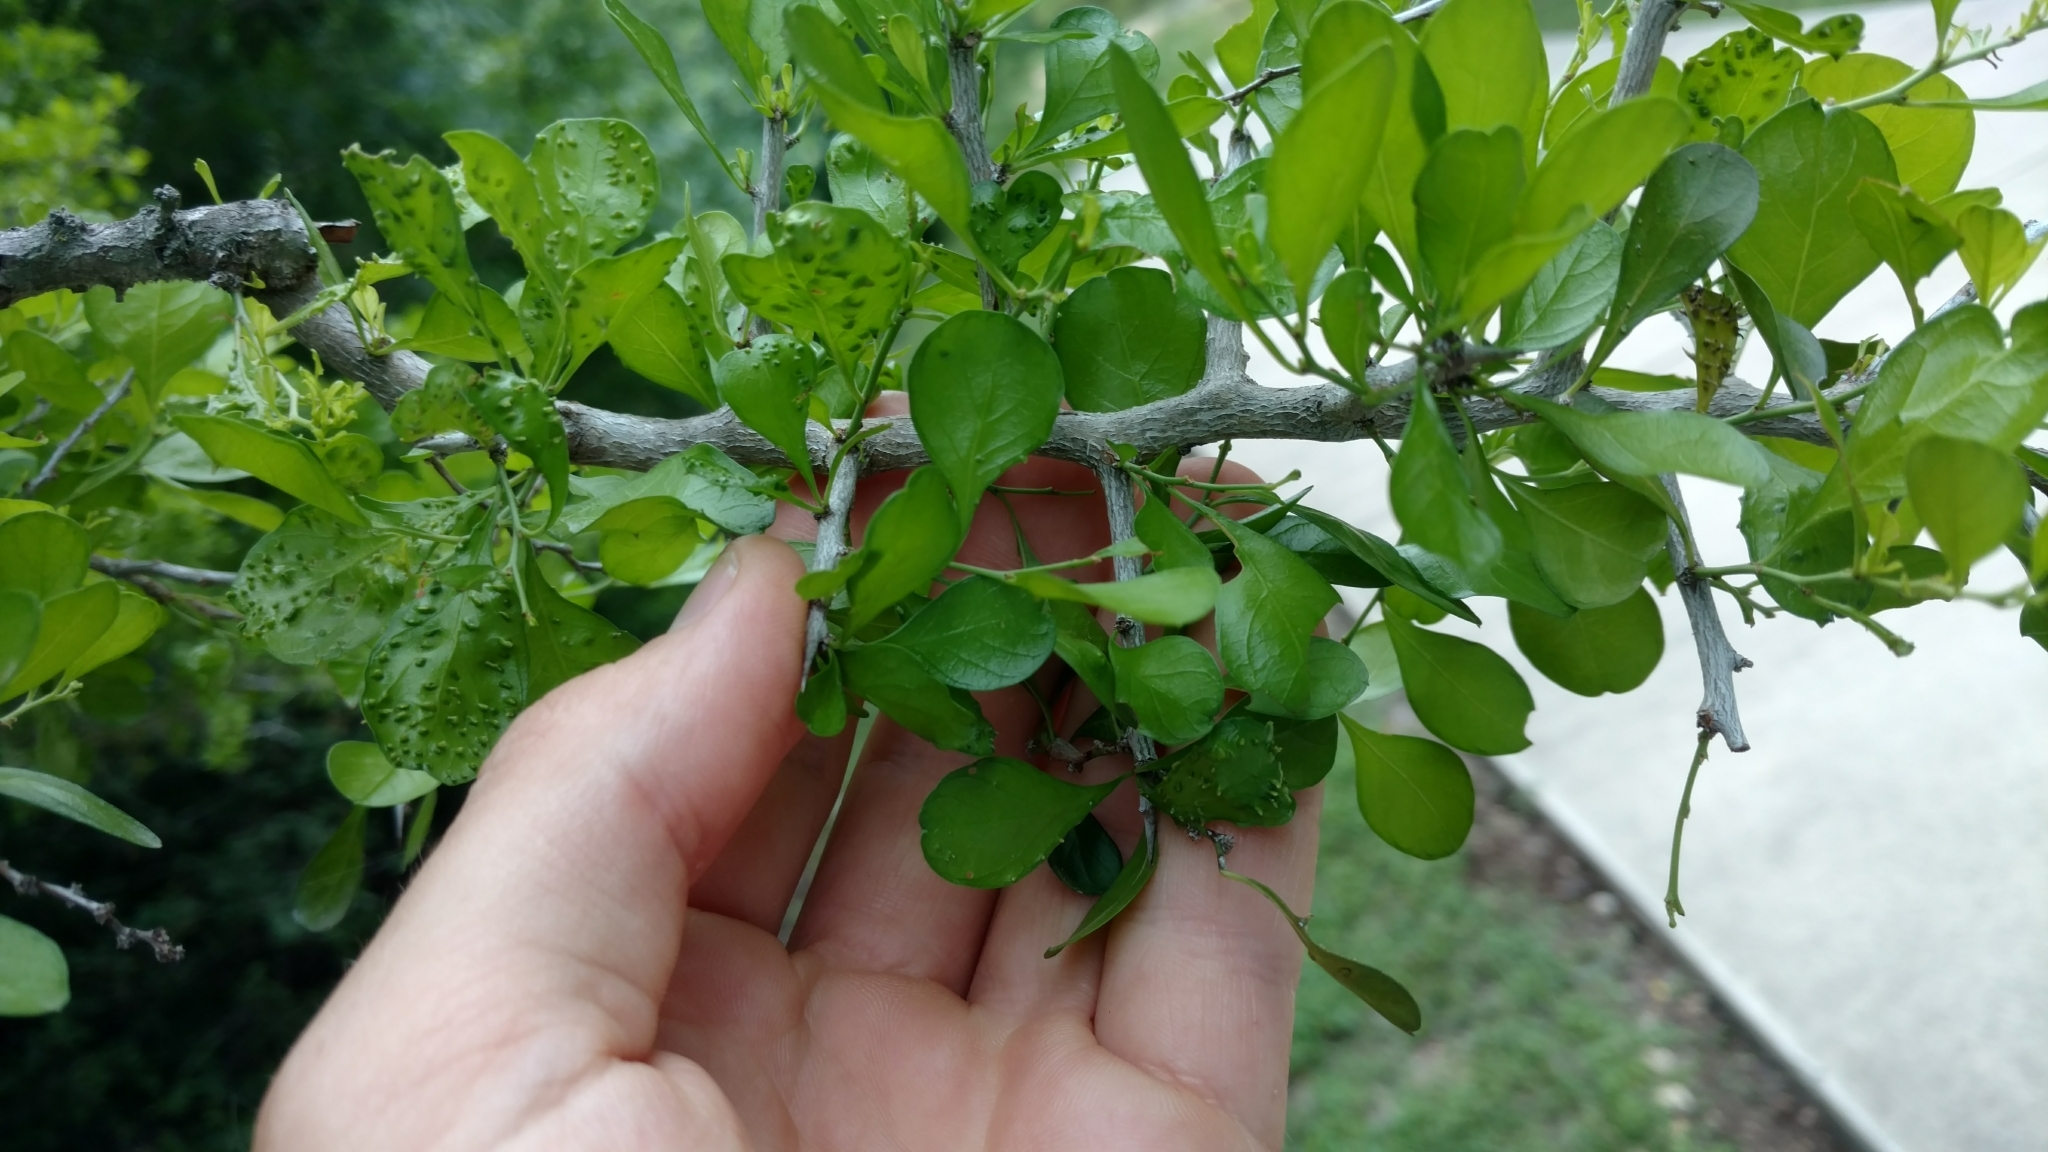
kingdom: Plantae
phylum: Tracheophyta
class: Magnoliopsida
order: Rosales
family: Rhamnaceae
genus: Condalia
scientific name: Condalia hookeri
